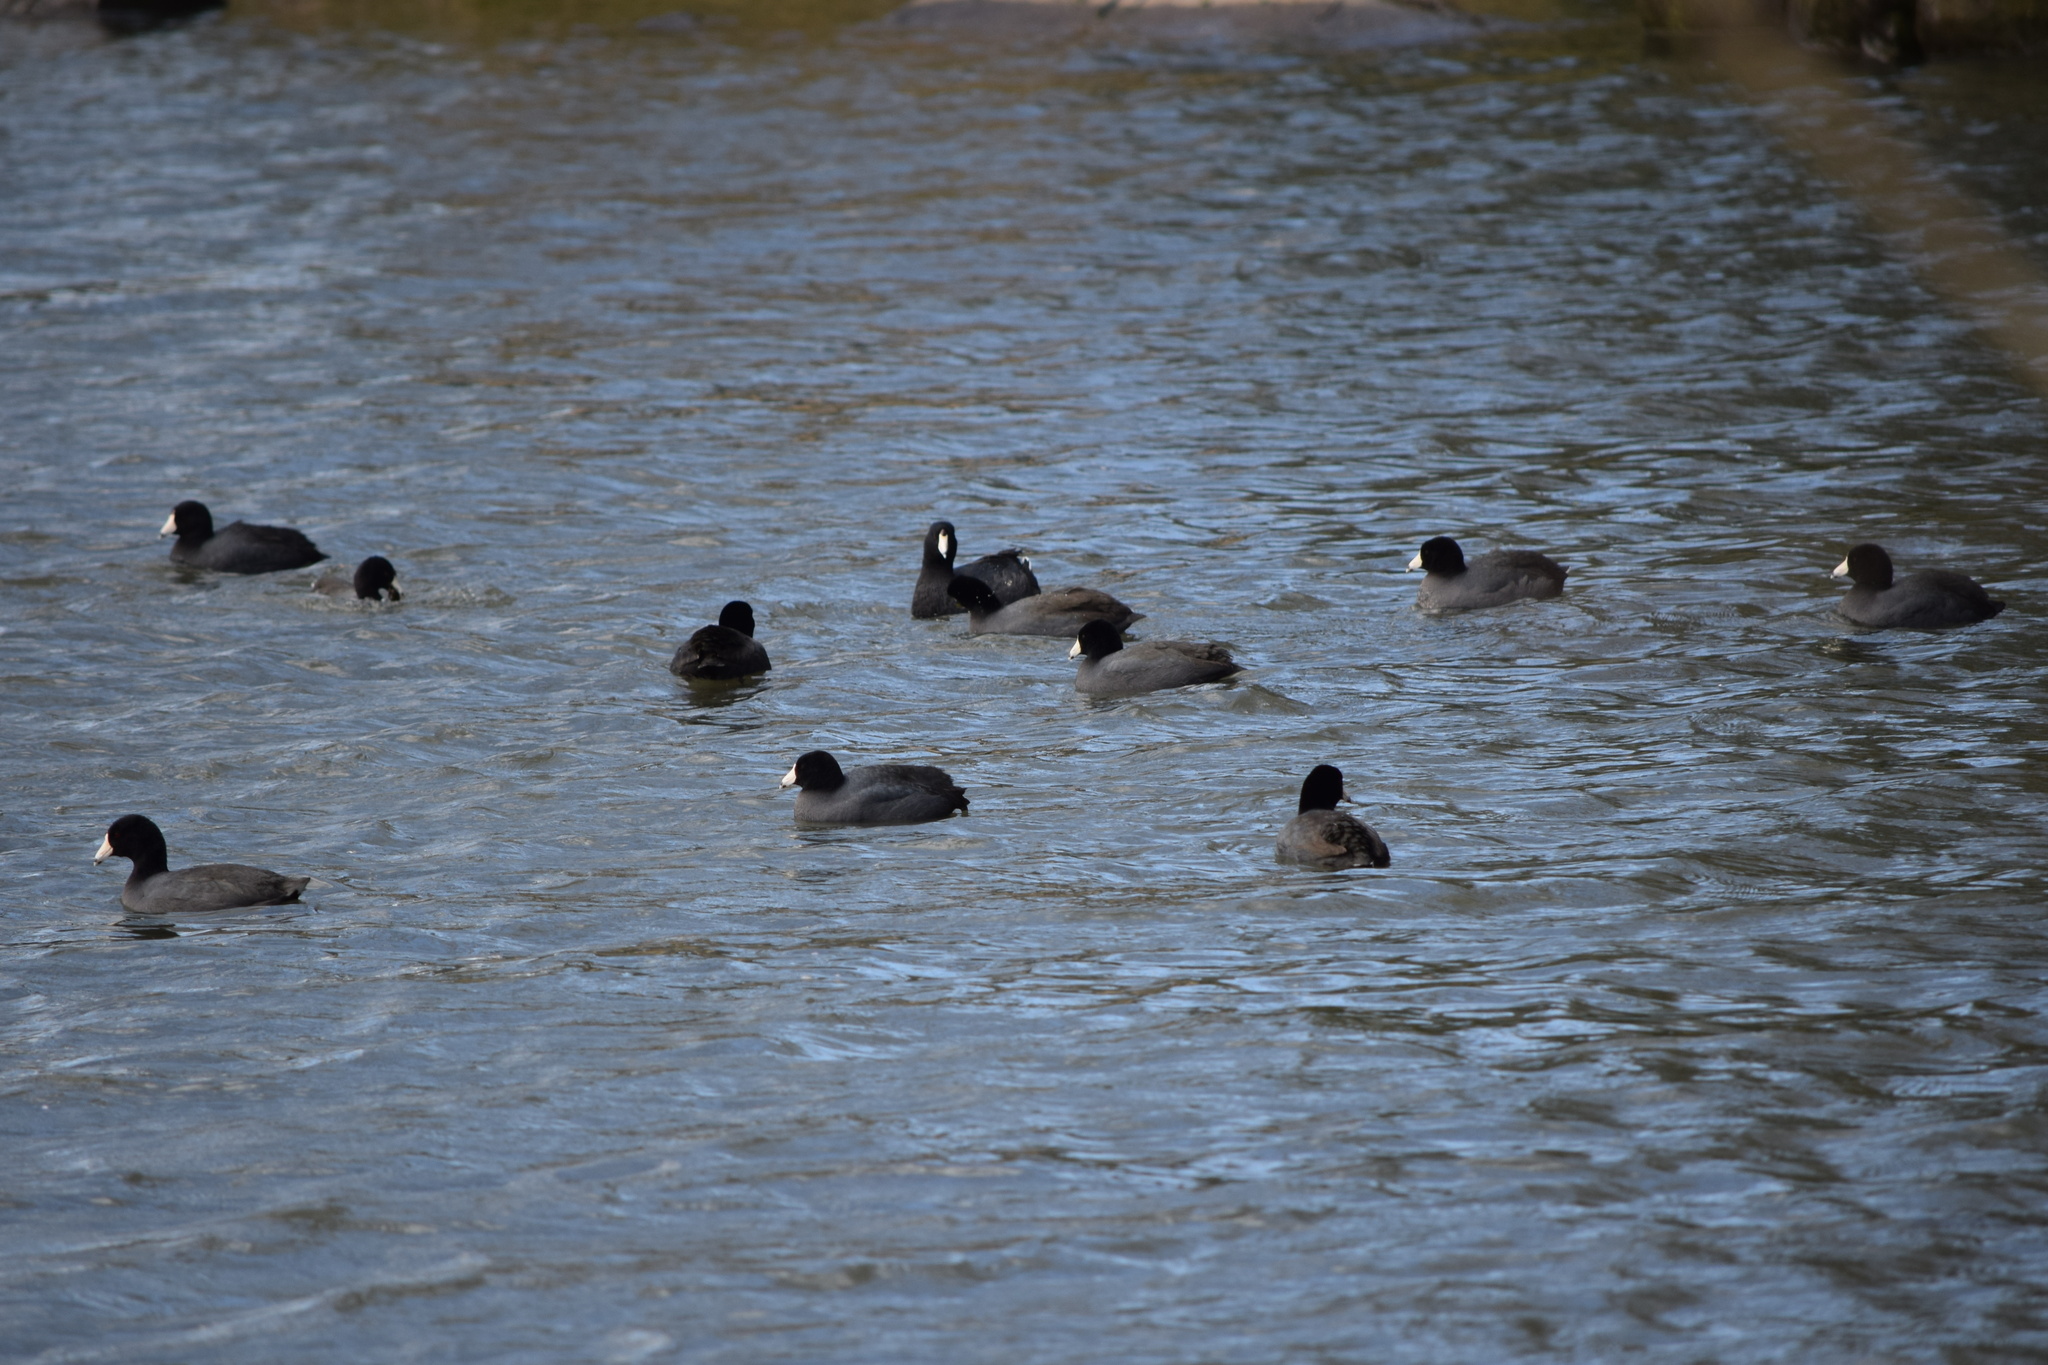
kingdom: Animalia
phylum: Chordata
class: Aves
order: Gruiformes
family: Rallidae
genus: Fulica
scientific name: Fulica americana
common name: American coot
